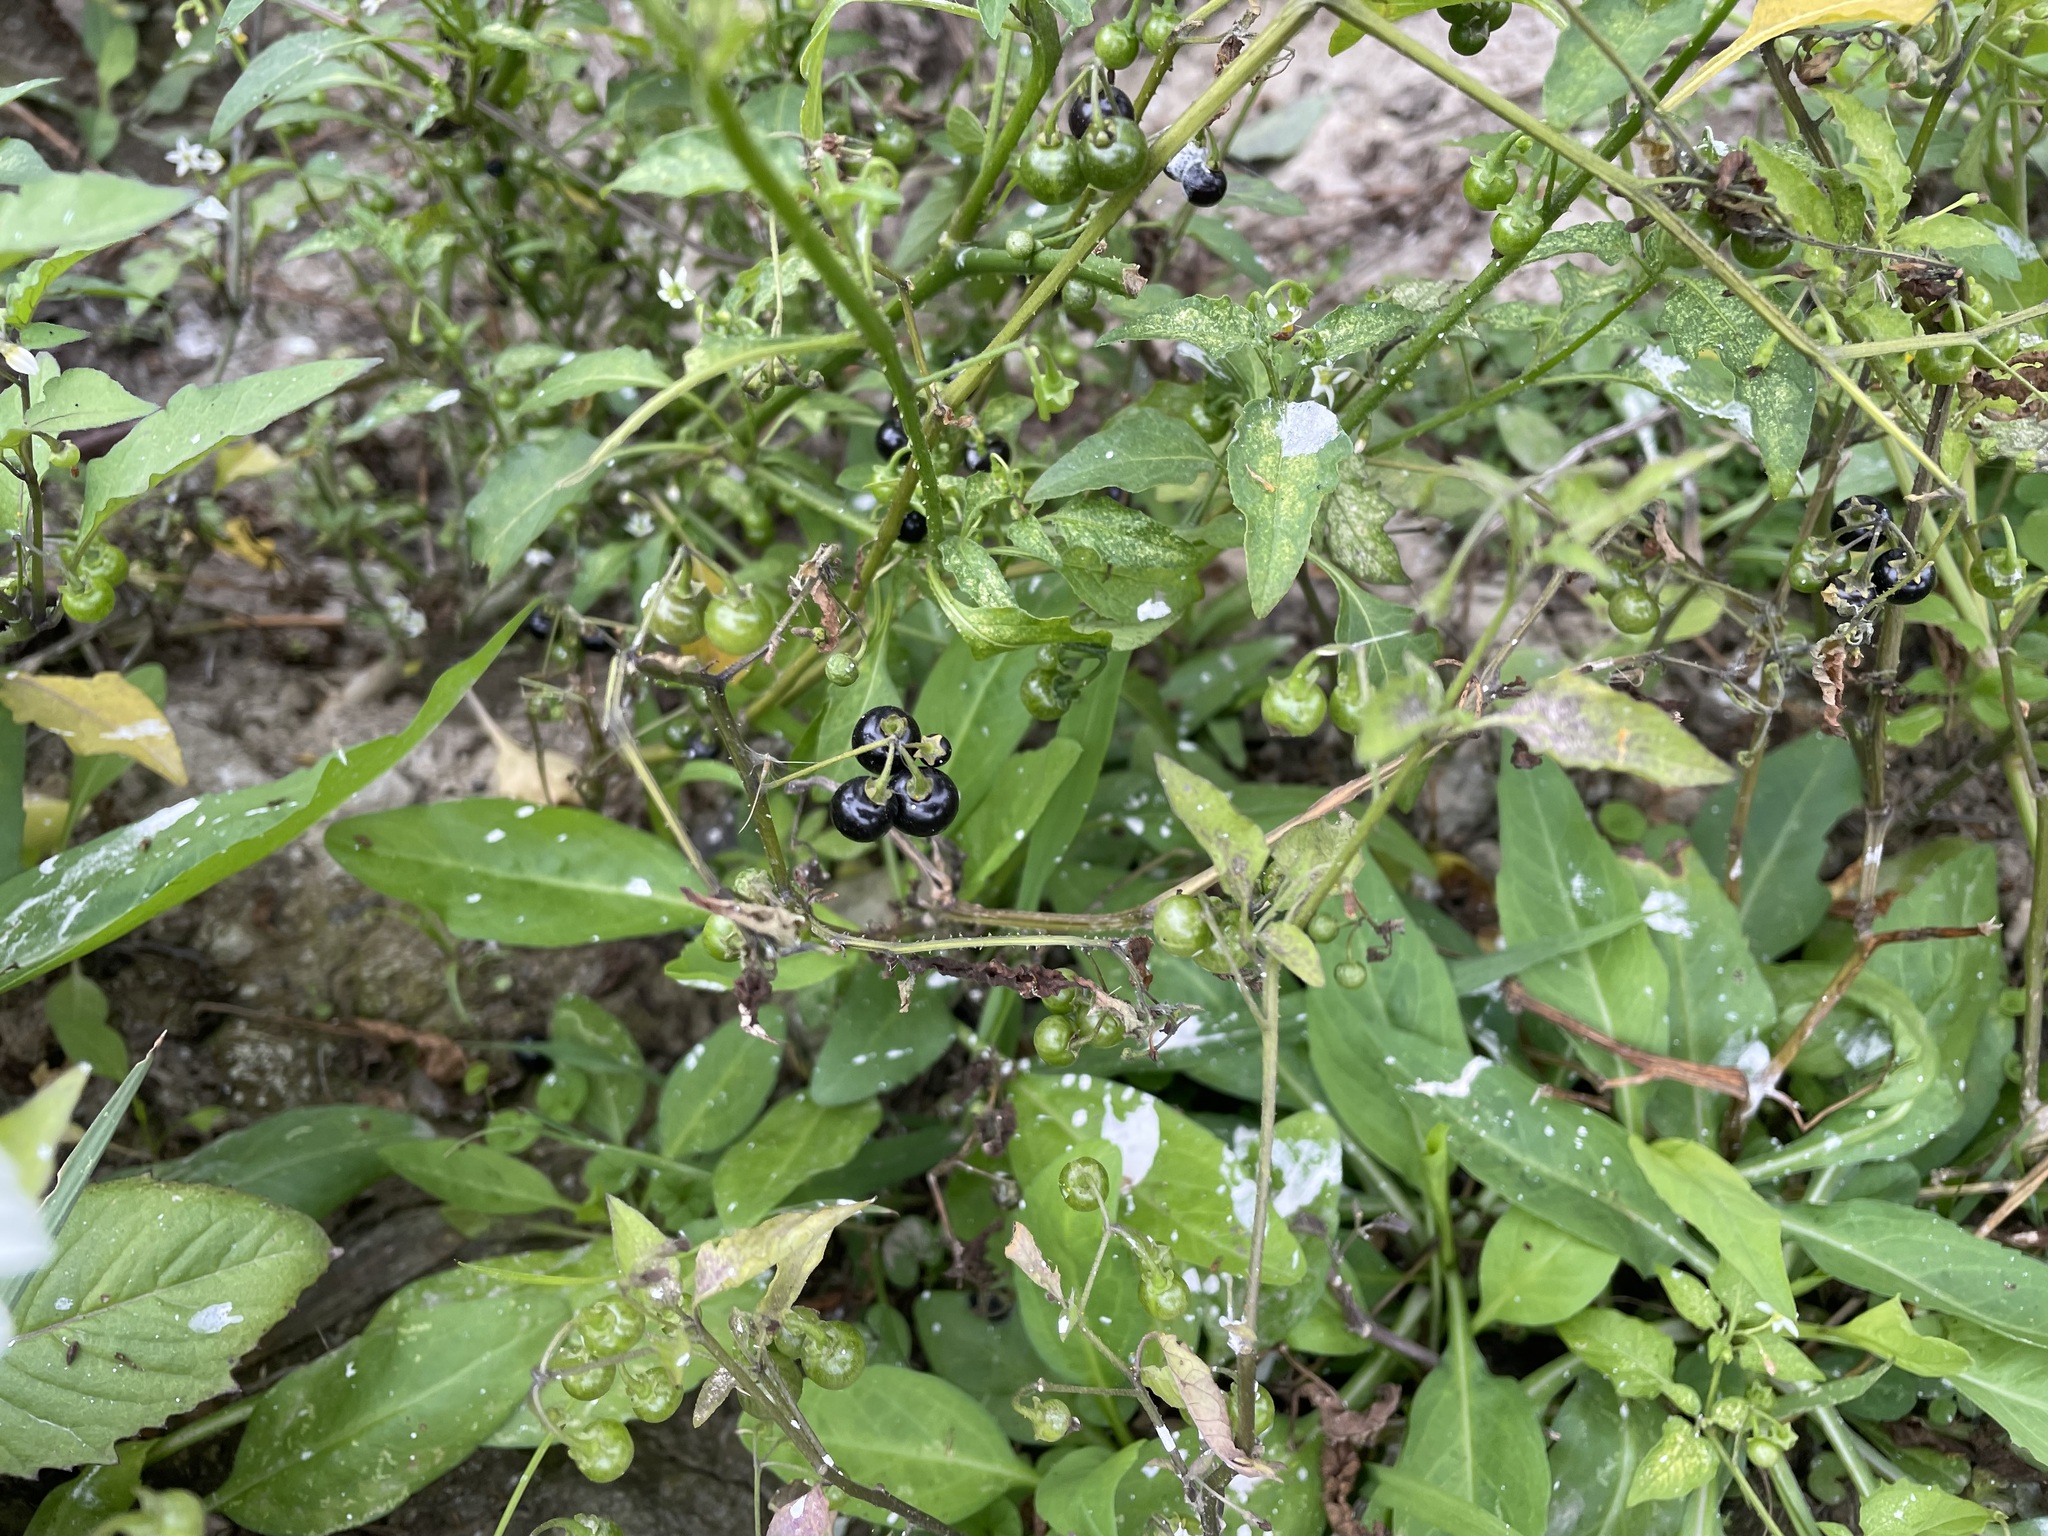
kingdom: Plantae
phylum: Tracheophyta
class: Magnoliopsida
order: Solanales
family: Solanaceae
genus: Solanum
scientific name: Solanum americanum
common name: American black nightshade
